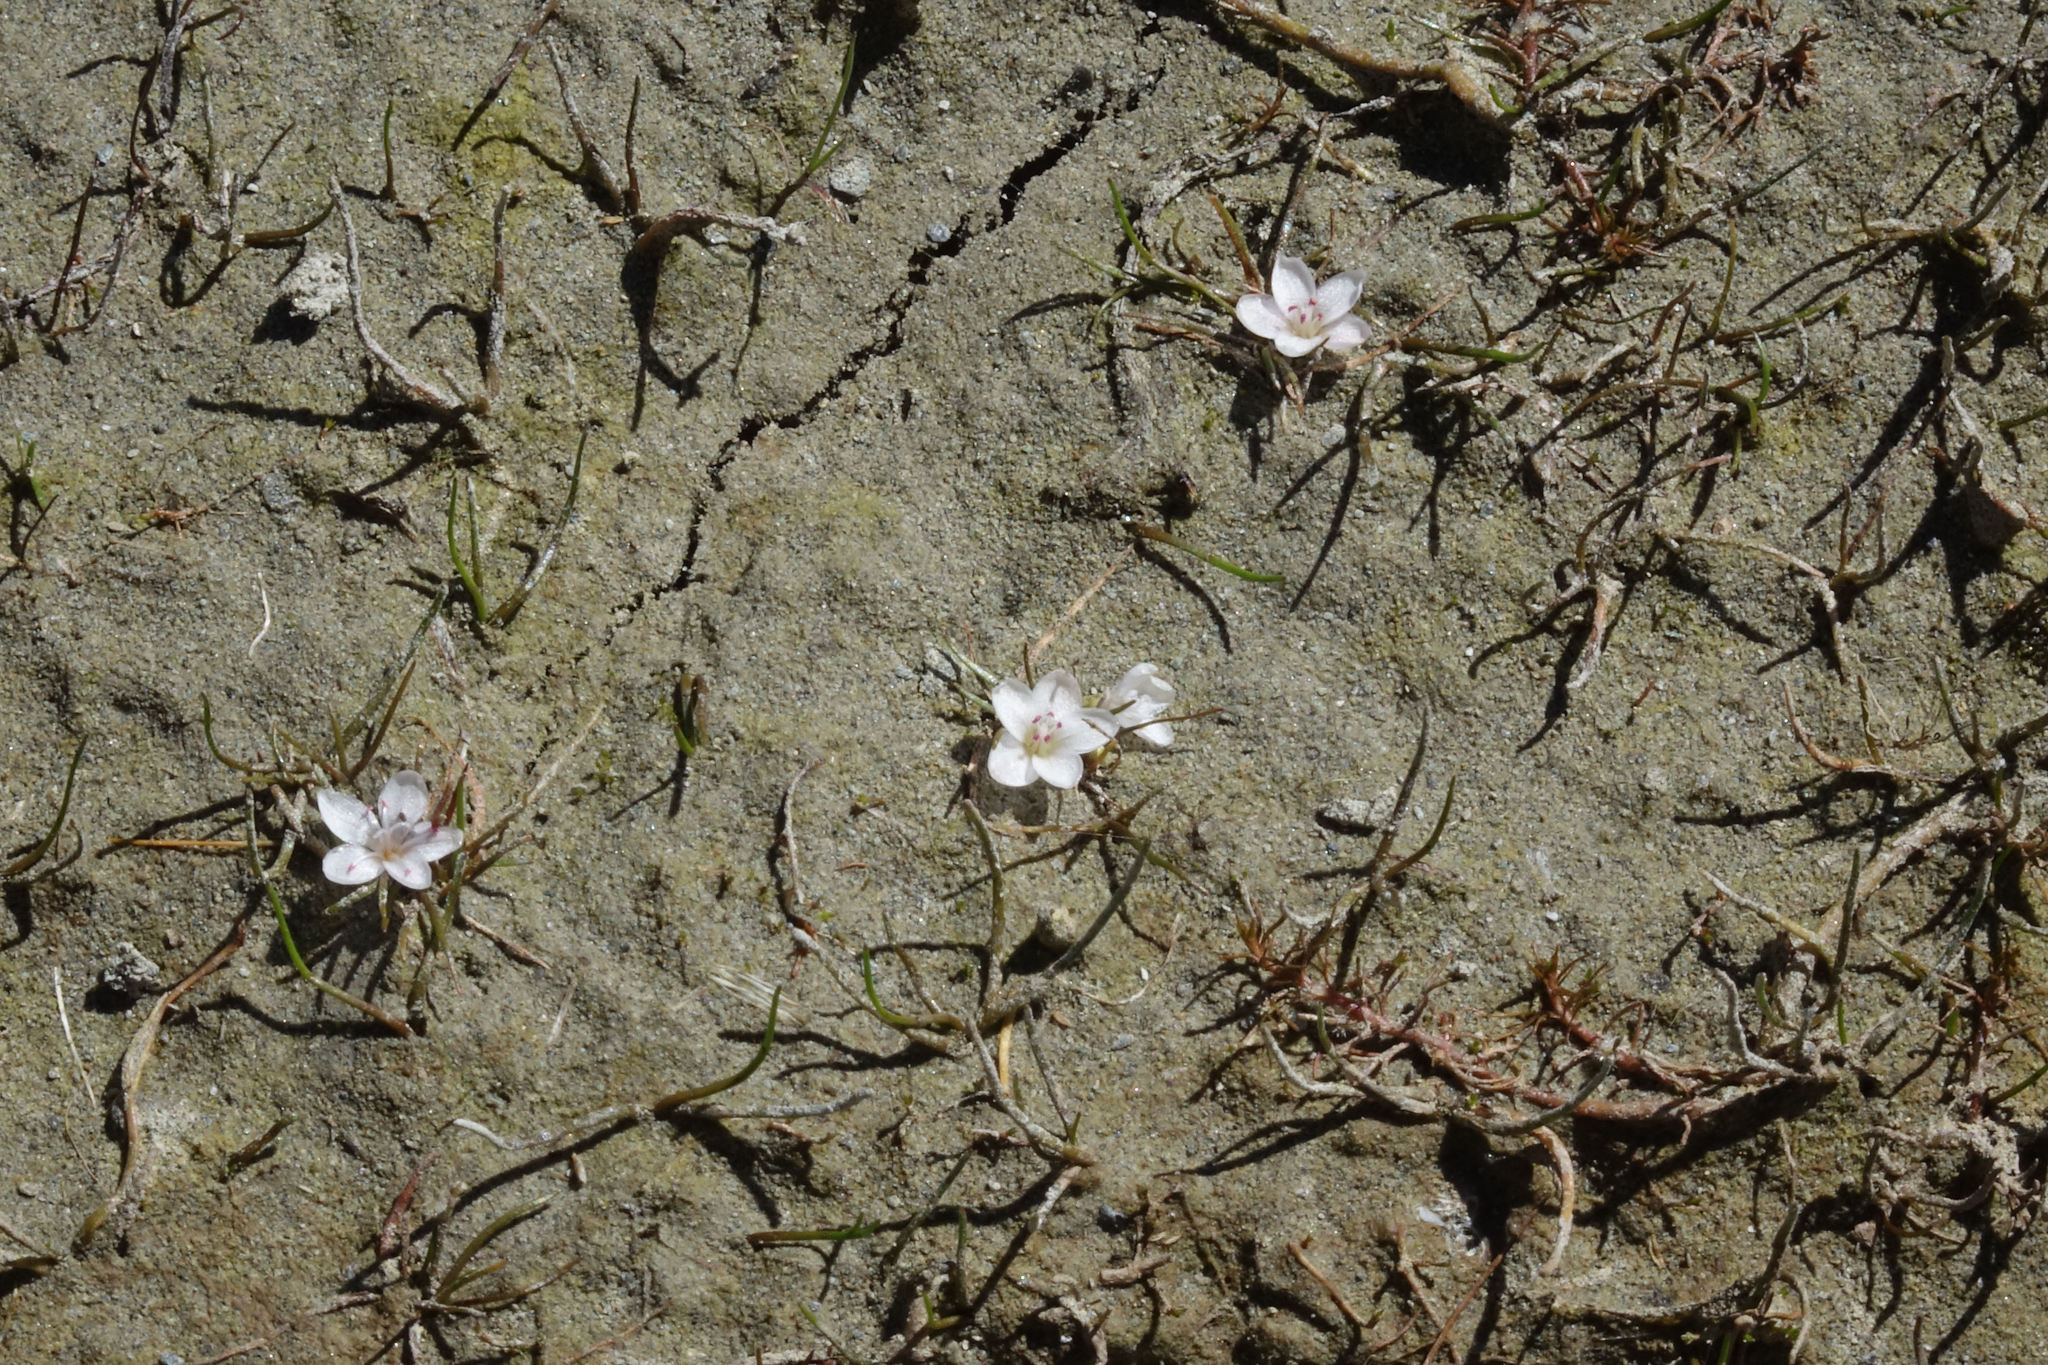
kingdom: Plantae
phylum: Tracheophyta
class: Magnoliopsida
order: Caryophyllales
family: Montiaceae
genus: Montia
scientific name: Montia angustifolia
